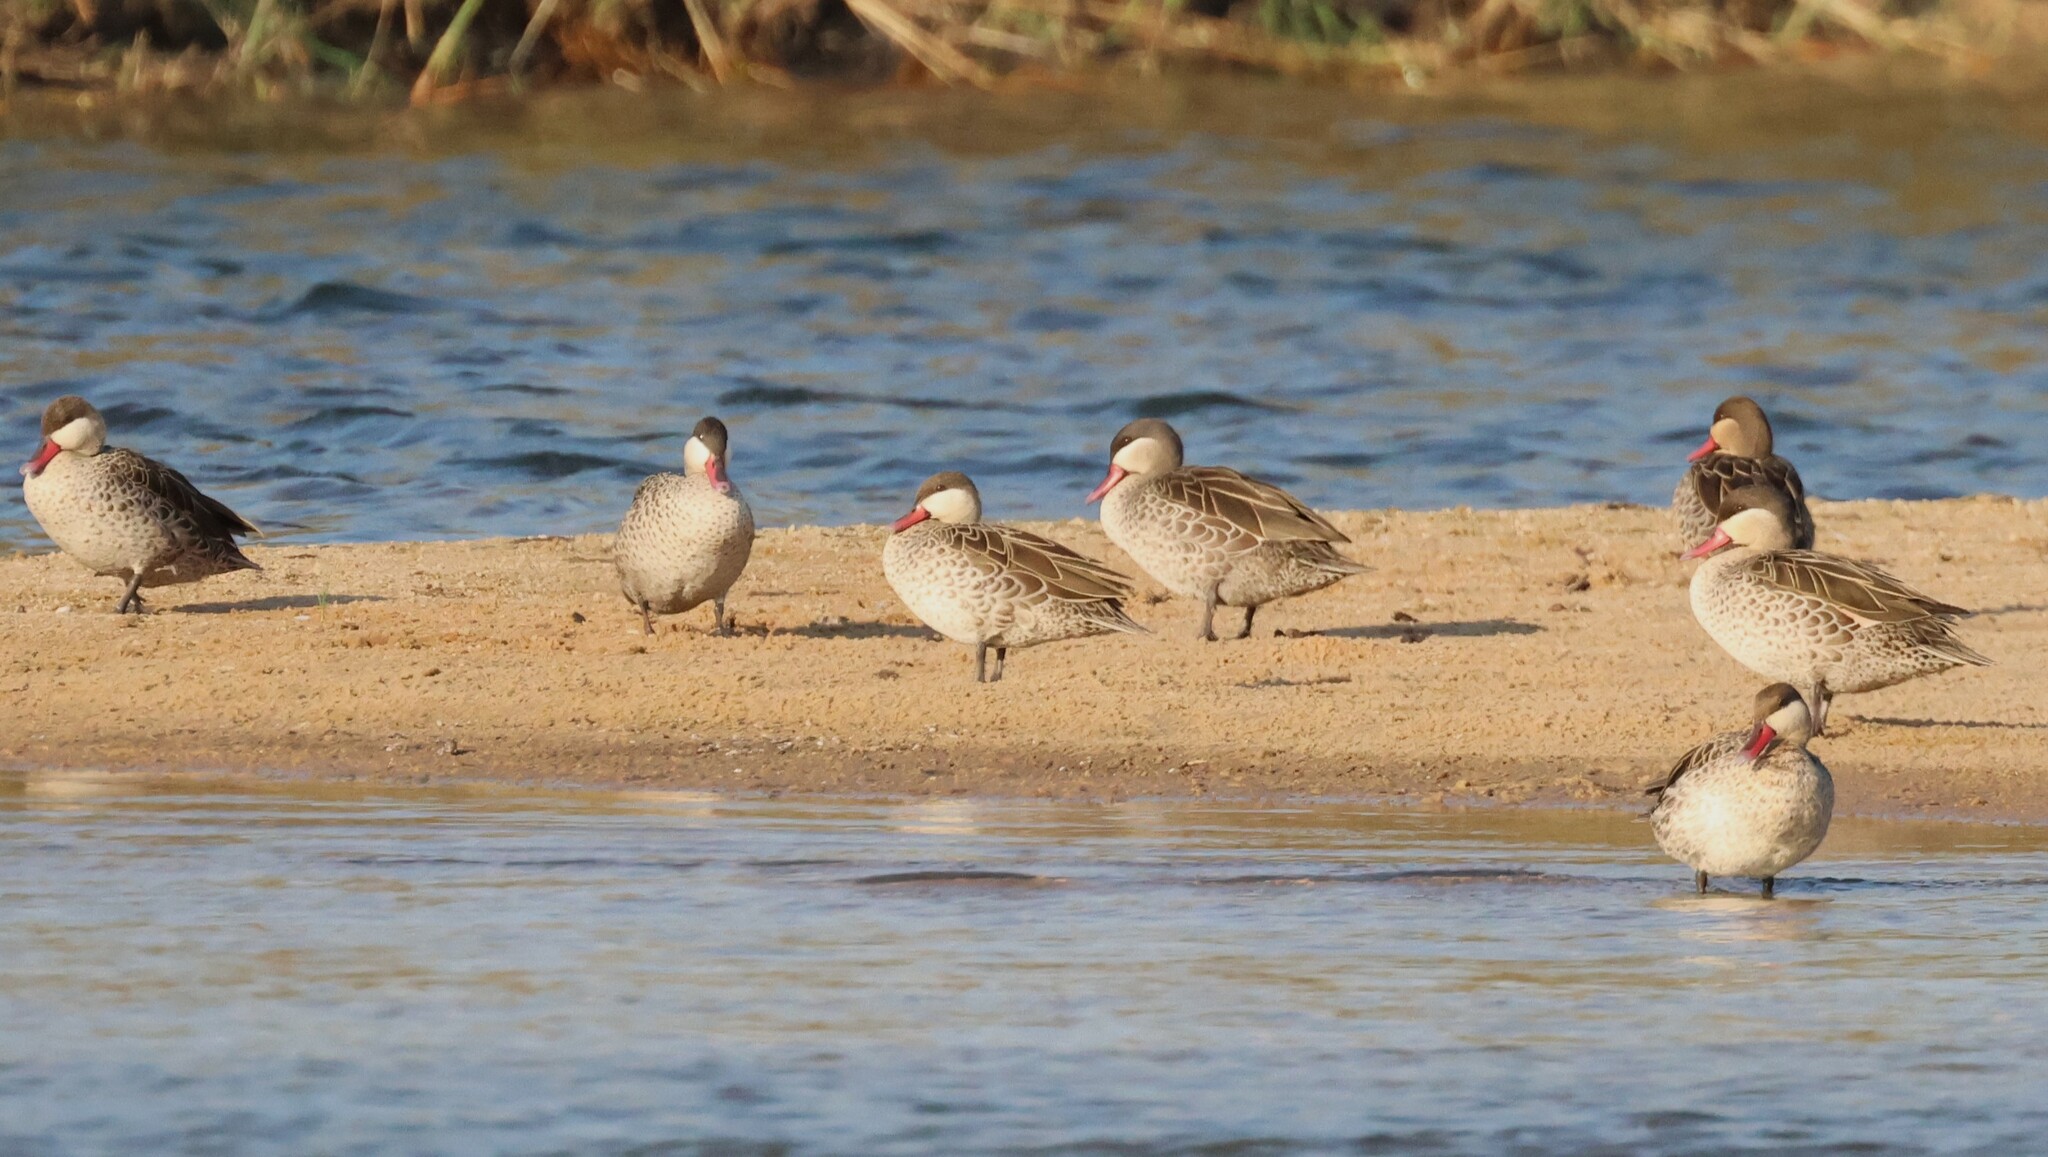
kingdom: Animalia
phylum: Chordata
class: Aves
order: Anseriformes
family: Anatidae
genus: Anas
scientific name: Anas erythrorhyncha
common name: Red-billed teal
